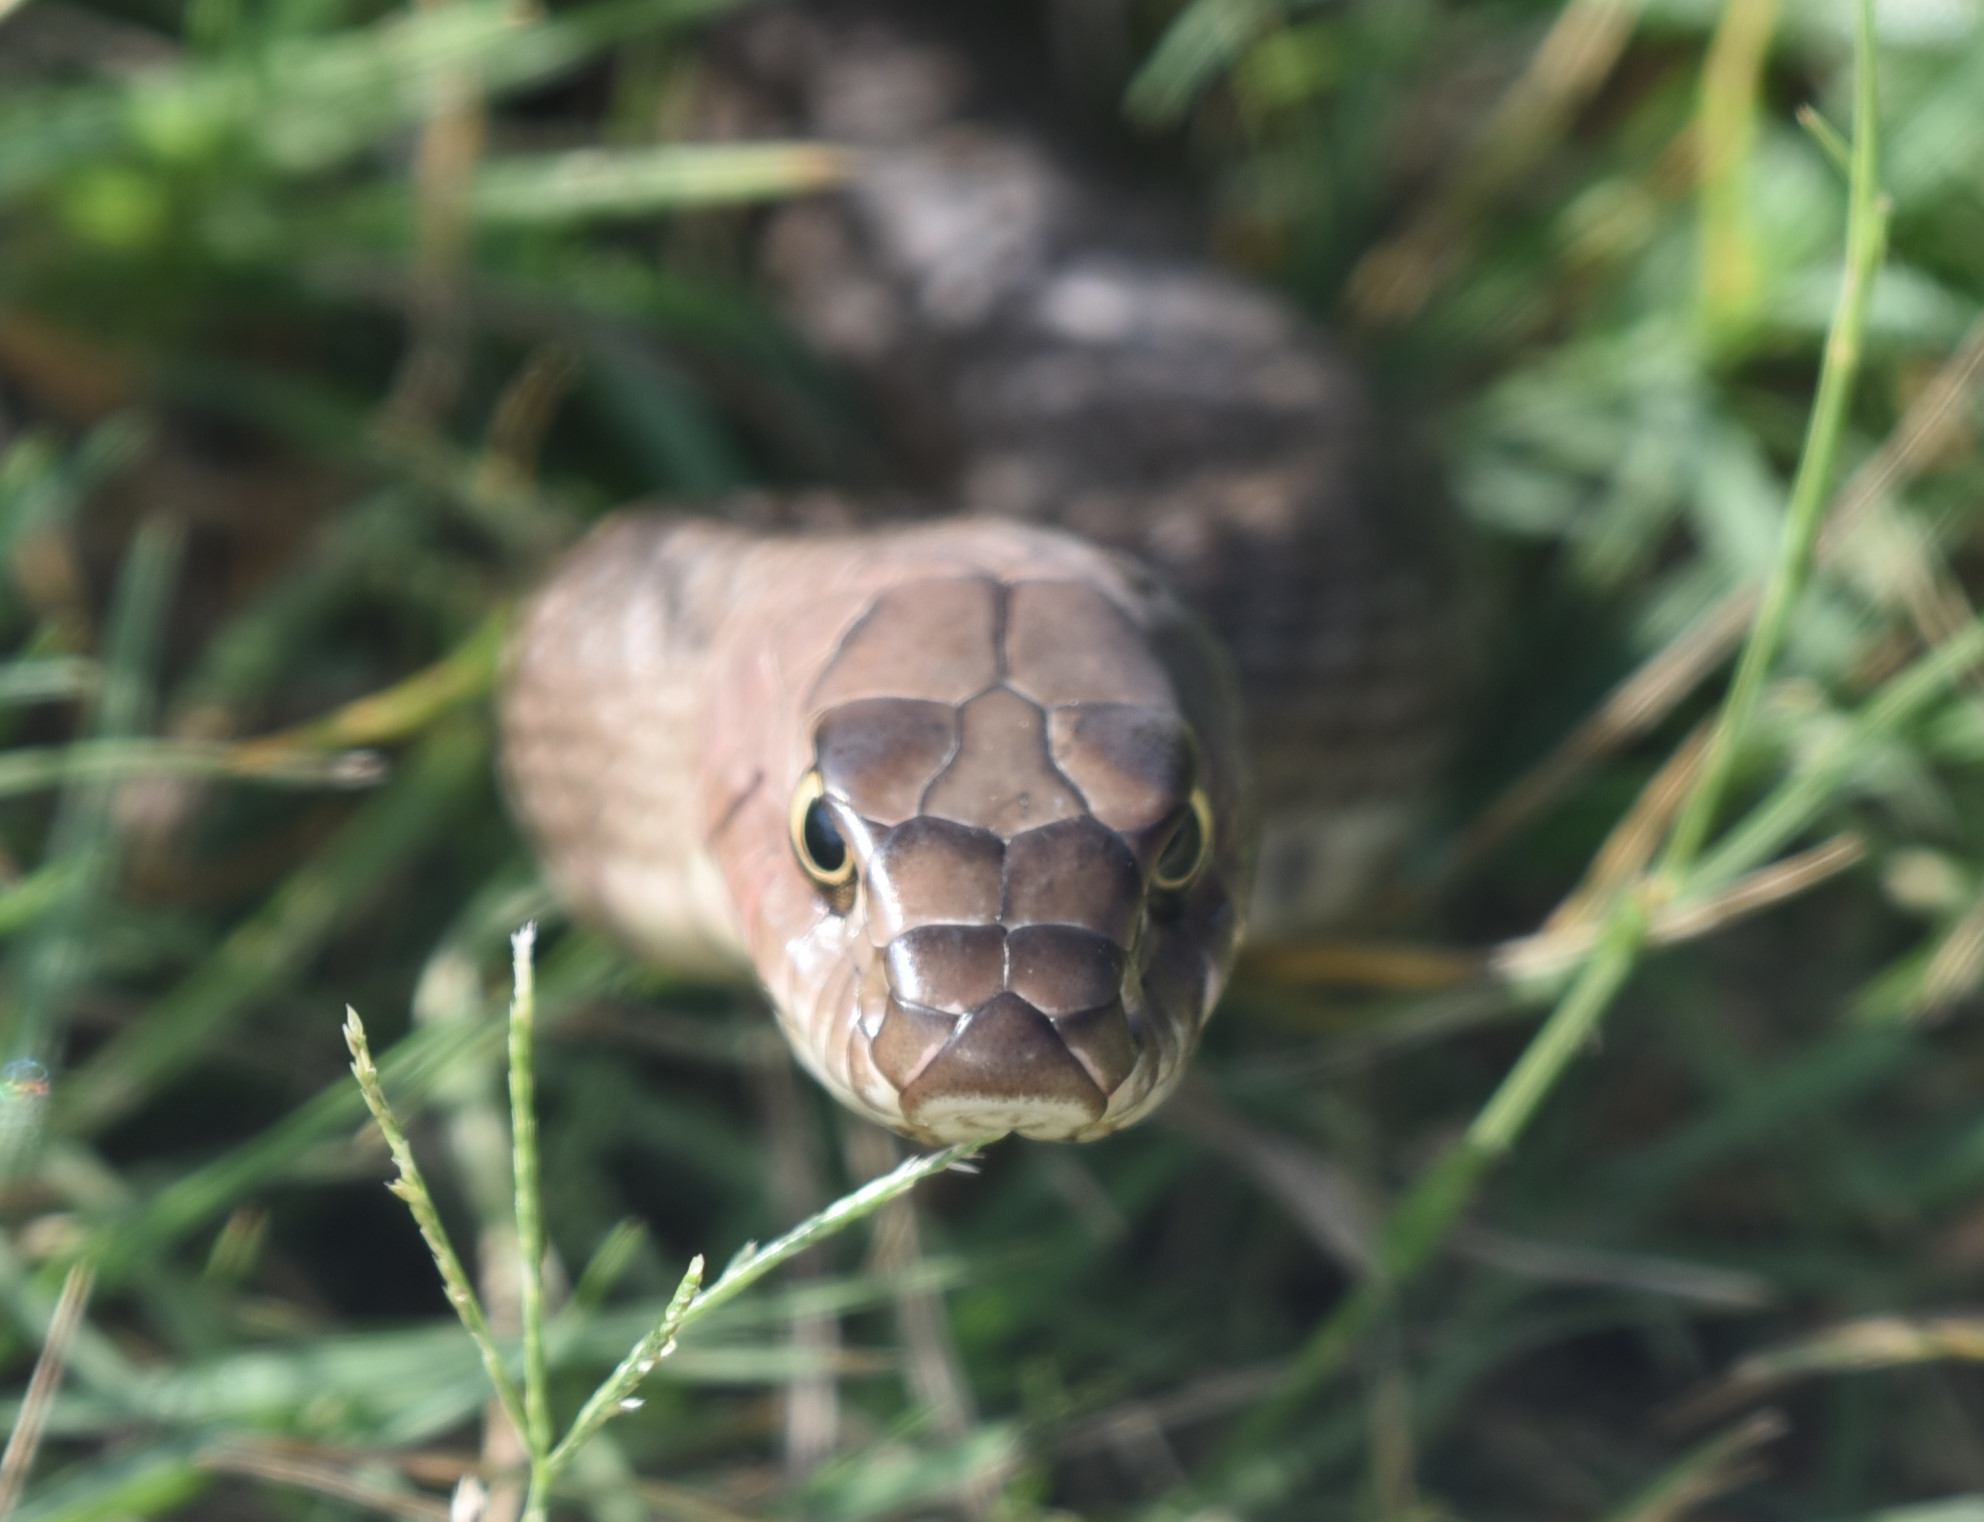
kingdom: Animalia
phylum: Chordata
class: Squamata
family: Colubridae
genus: Masticophis
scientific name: Masticophis flagellum
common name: Coachwhip
